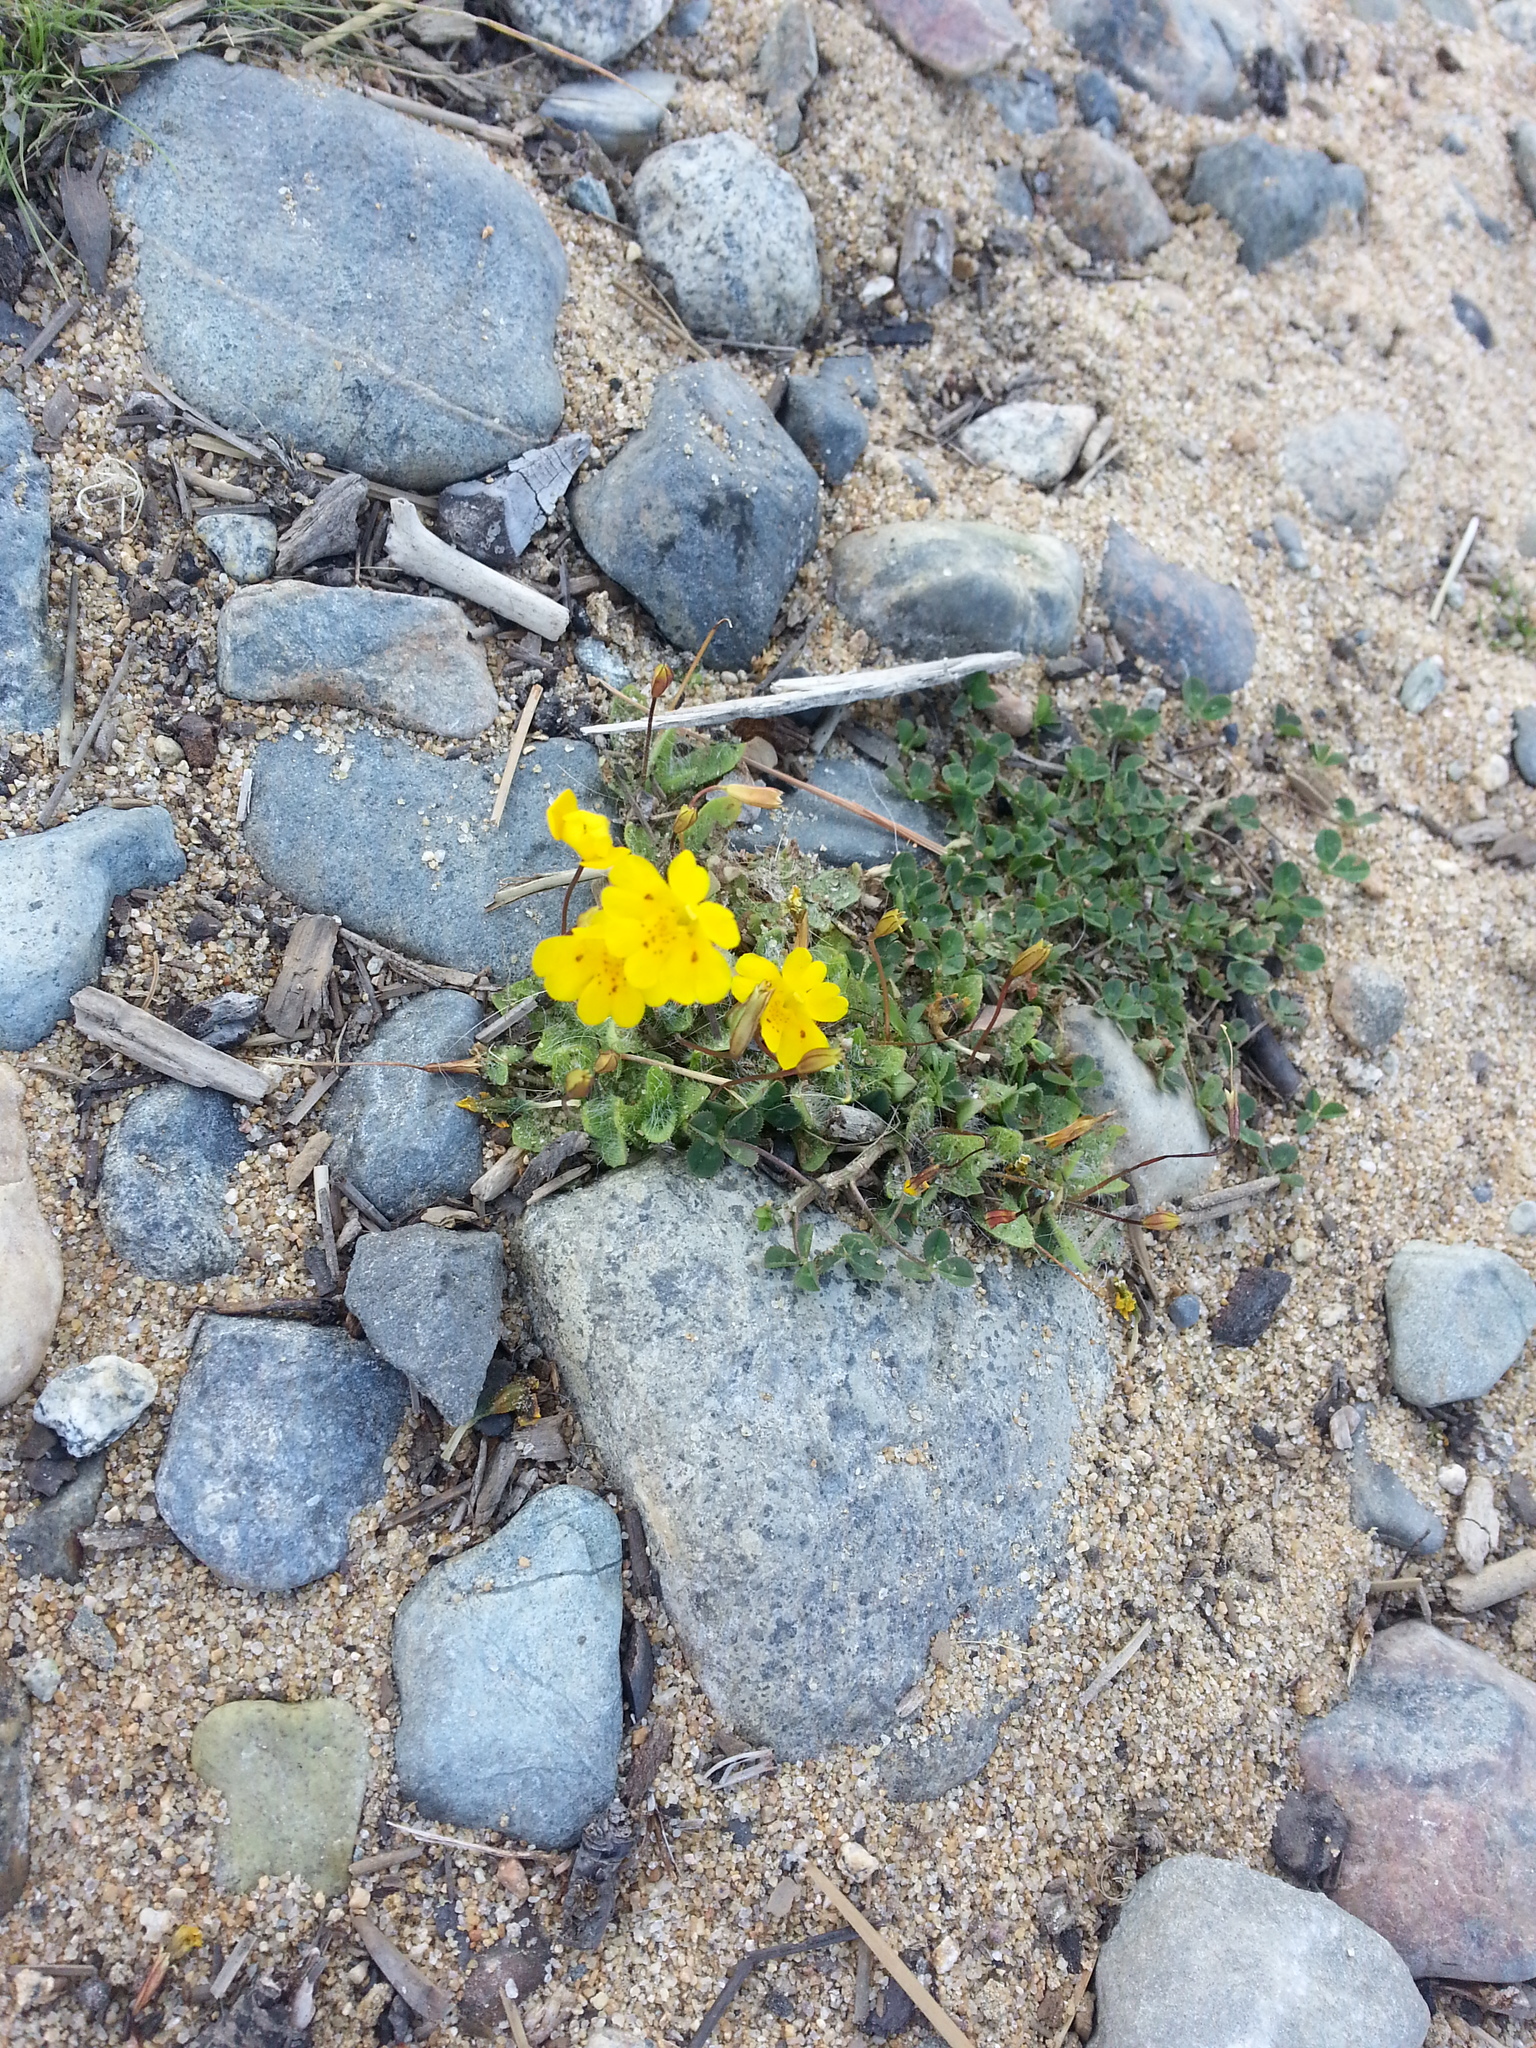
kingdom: Plantae
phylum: Tracheophyta
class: Magnoliopsida
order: Lamiales
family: Phrymaceae
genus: Erythranthe
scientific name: Erythranthe primuloides
